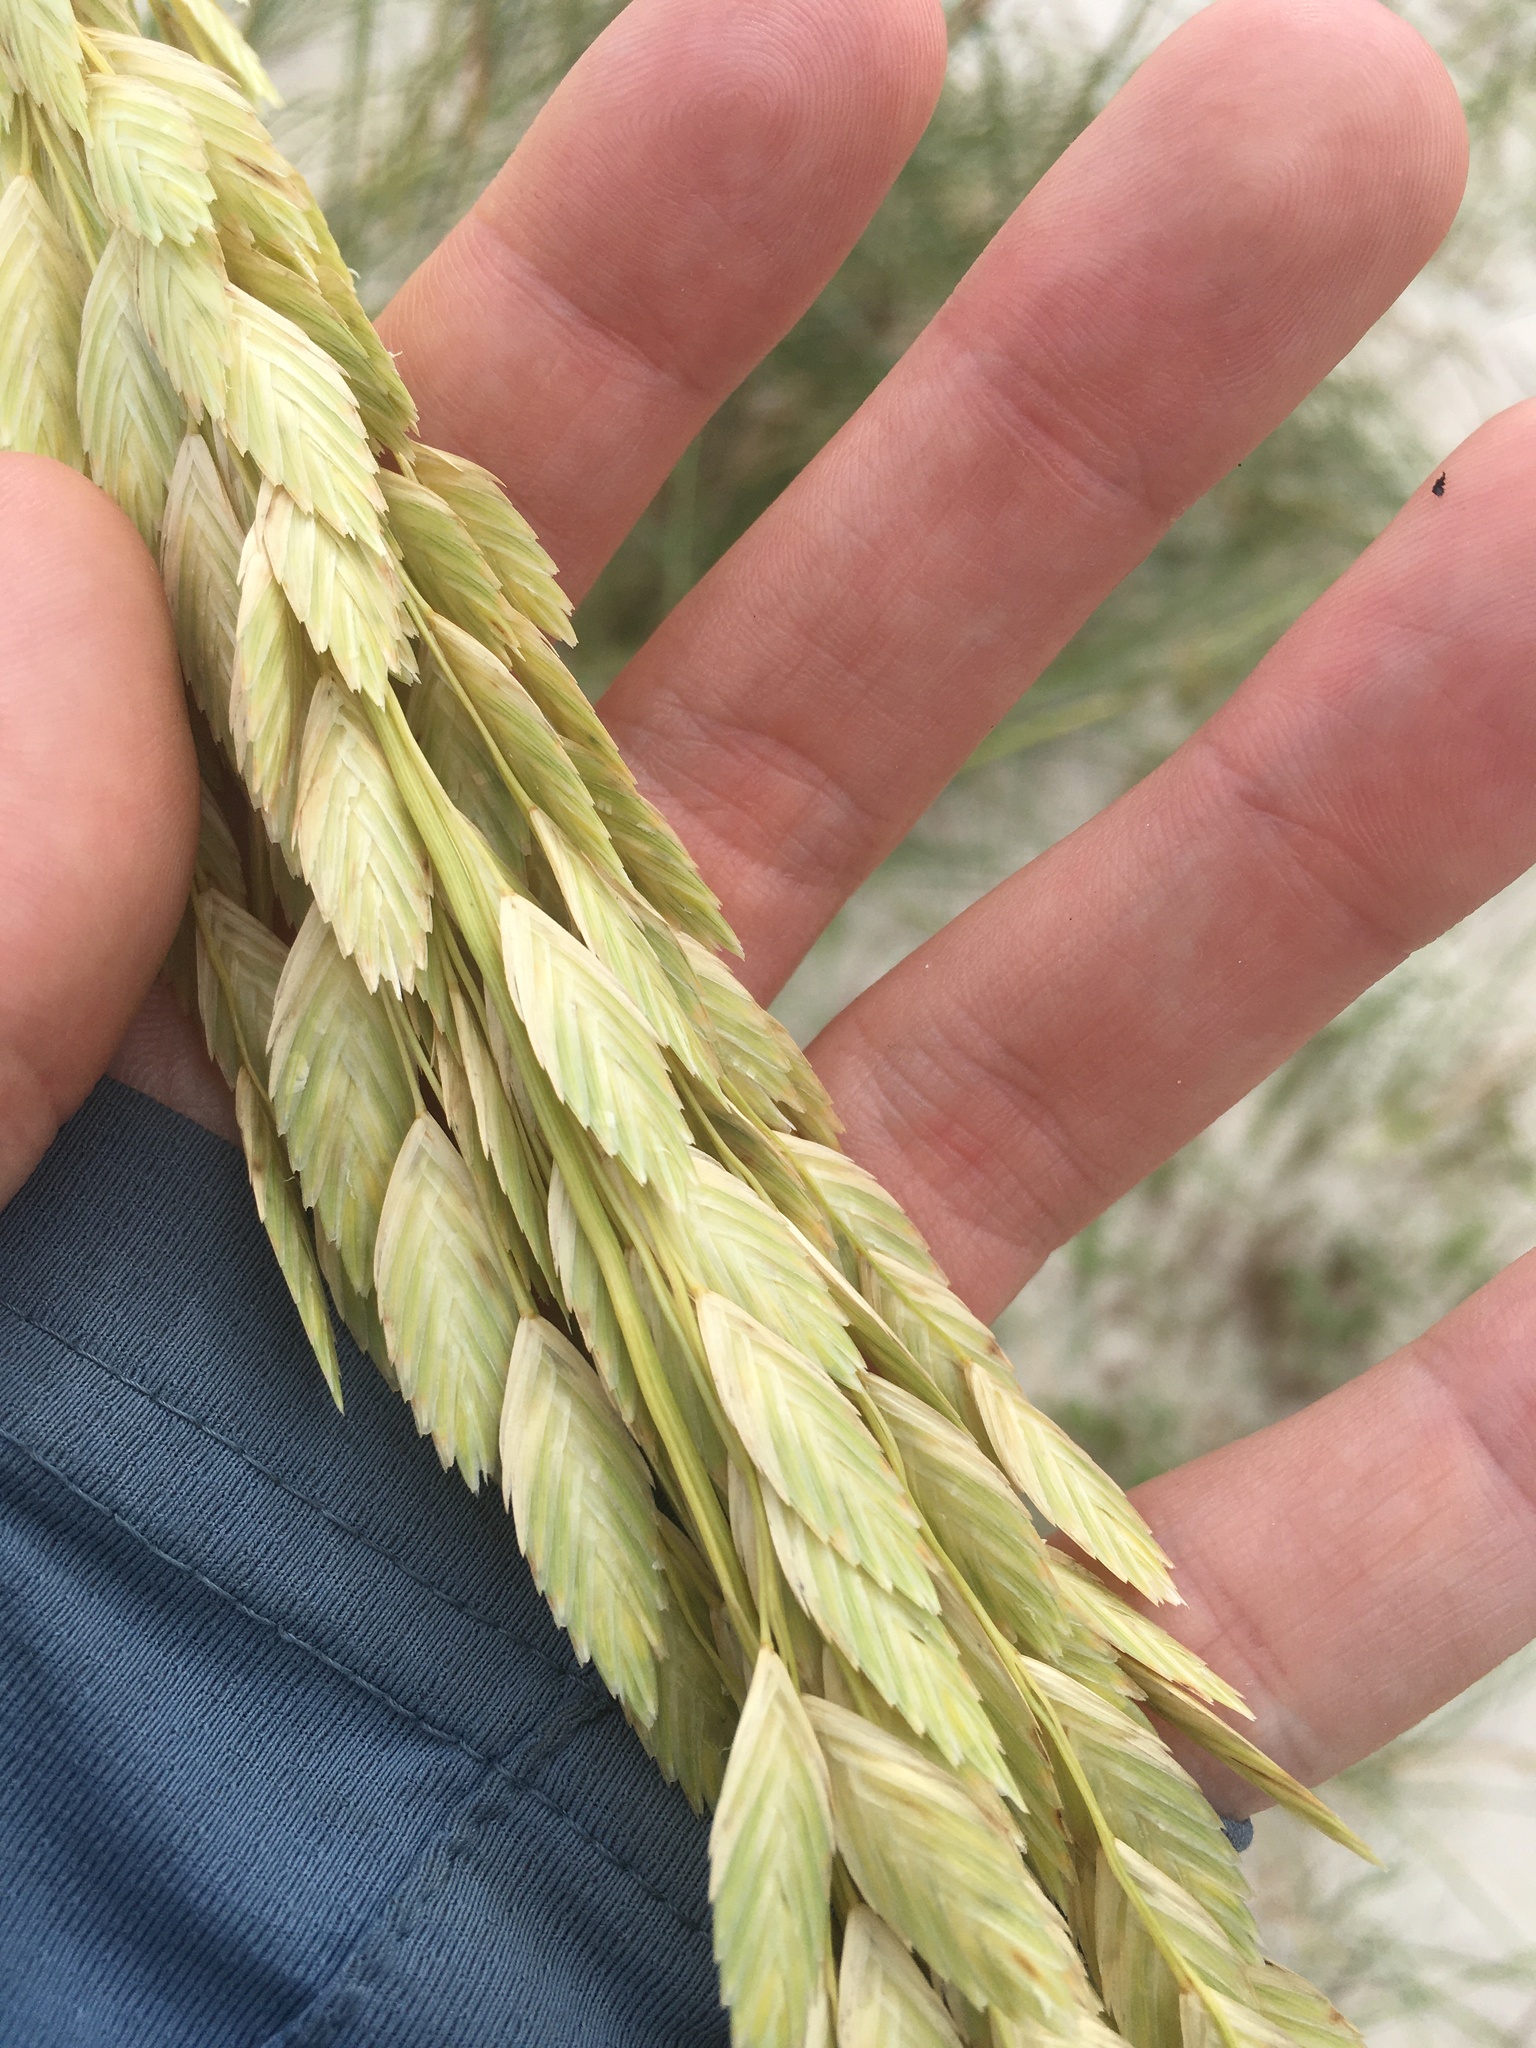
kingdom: Plantae
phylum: Tracheophyta
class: Liliopsida
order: Poales
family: Poaceae
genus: Uniola
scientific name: Uniola paniculata
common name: Seaside-oats
